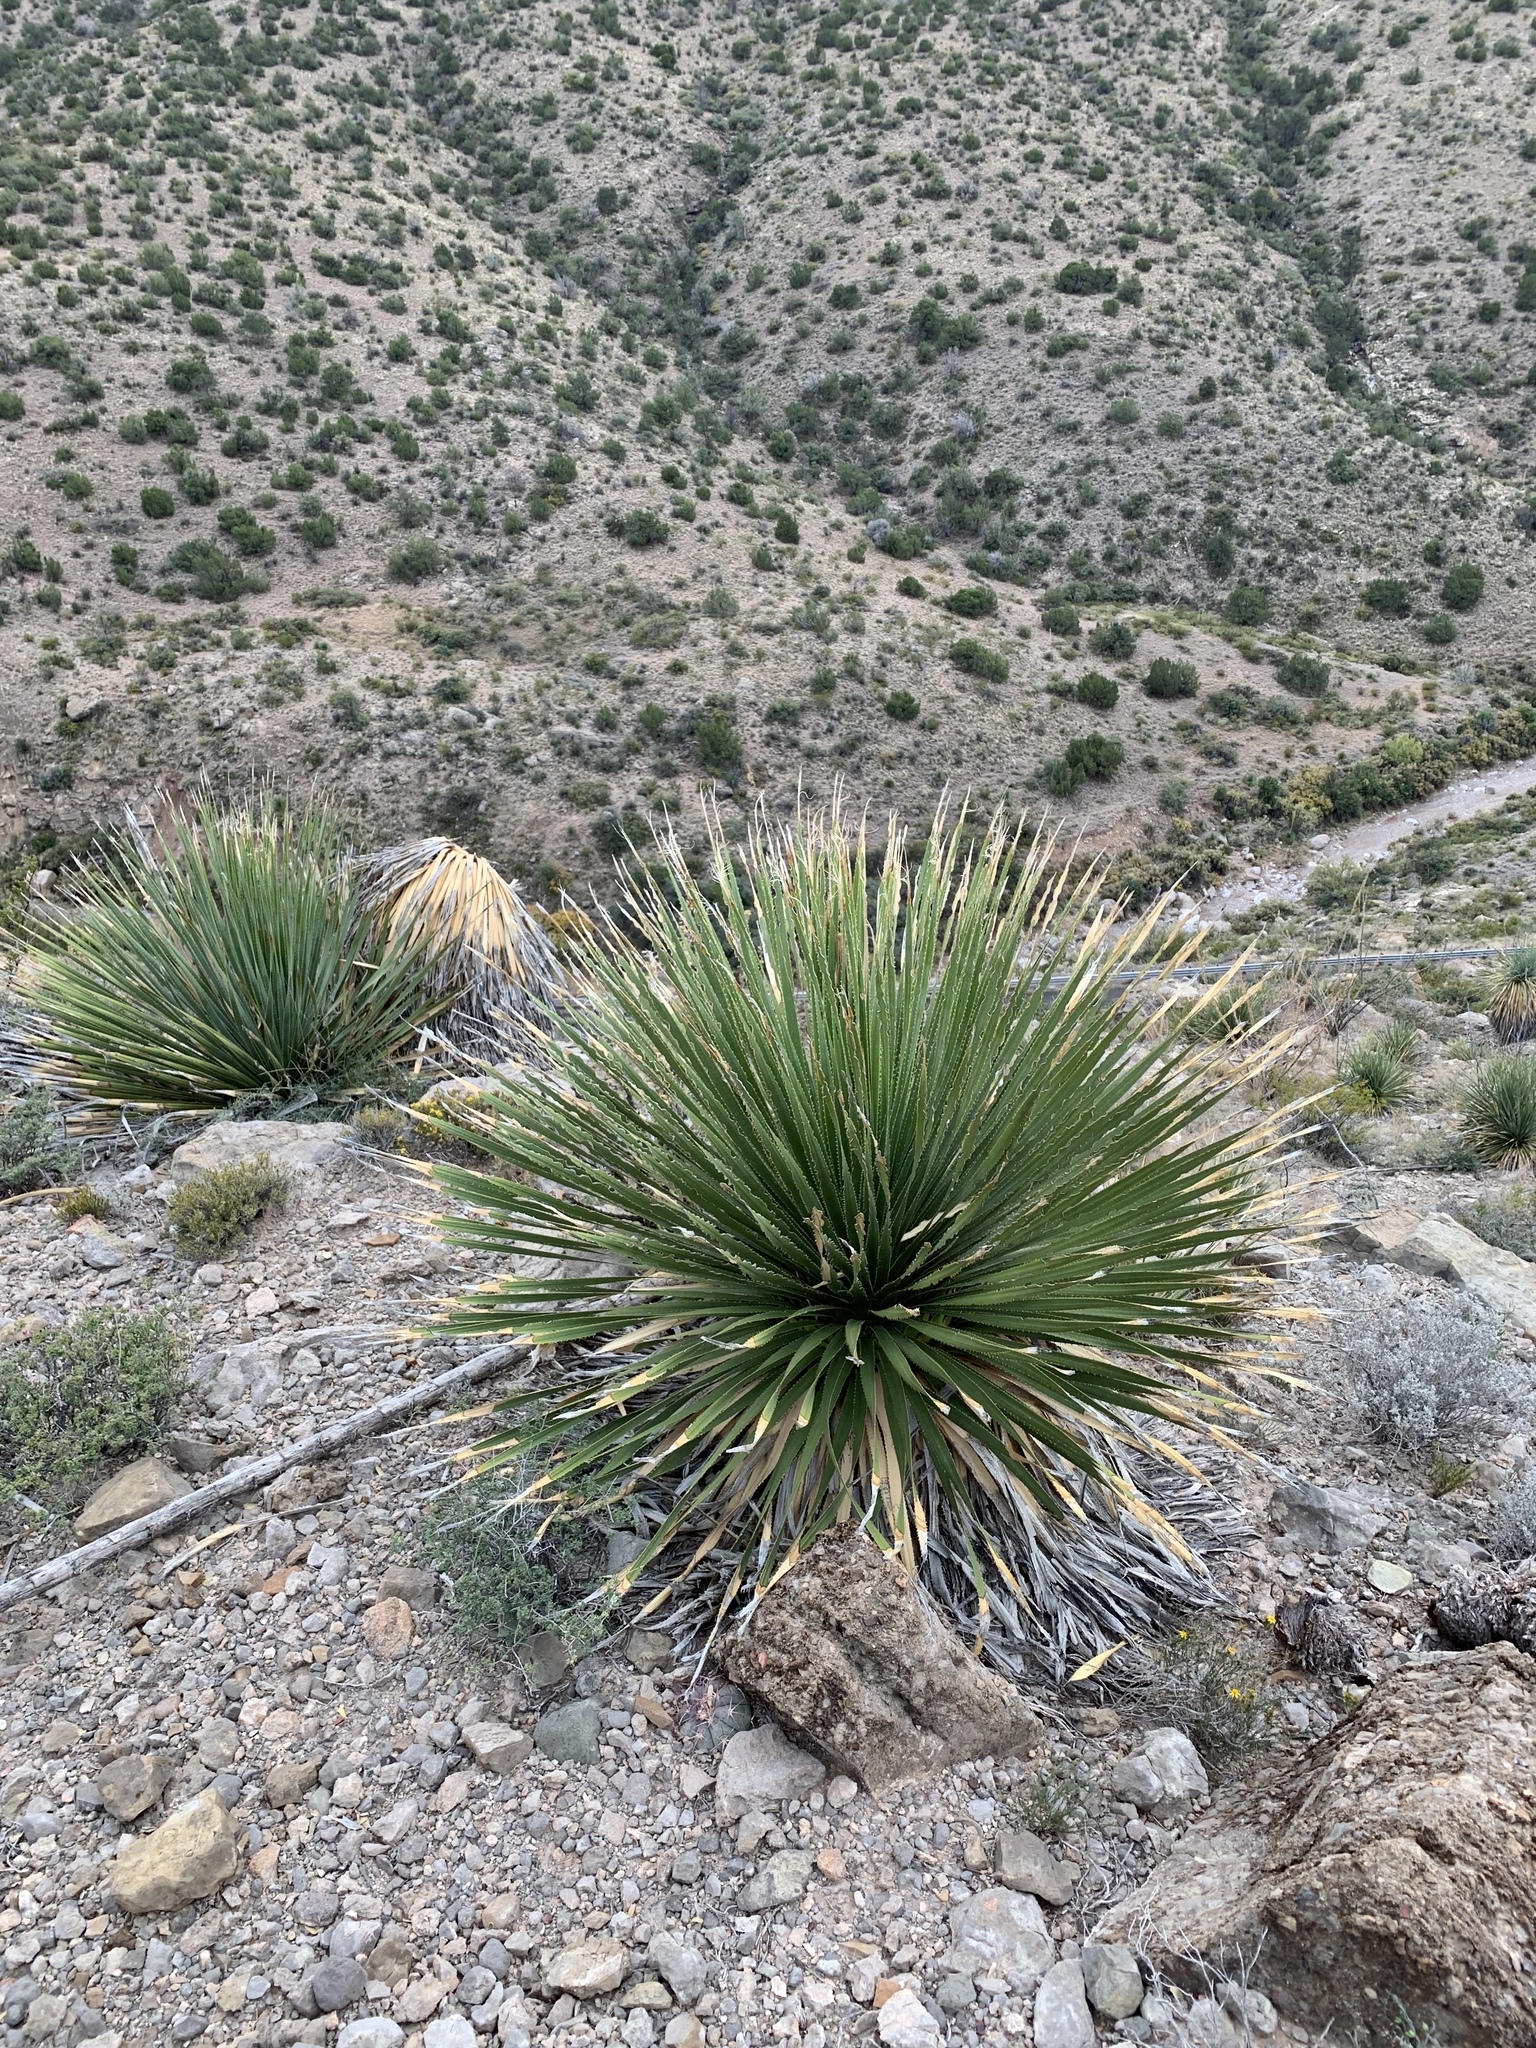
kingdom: Plantae
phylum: Tracheophyta
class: Liliopsida
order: Asparagales
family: Asparagaceae
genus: Dasylirion
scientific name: Dasylirion wheeleri
